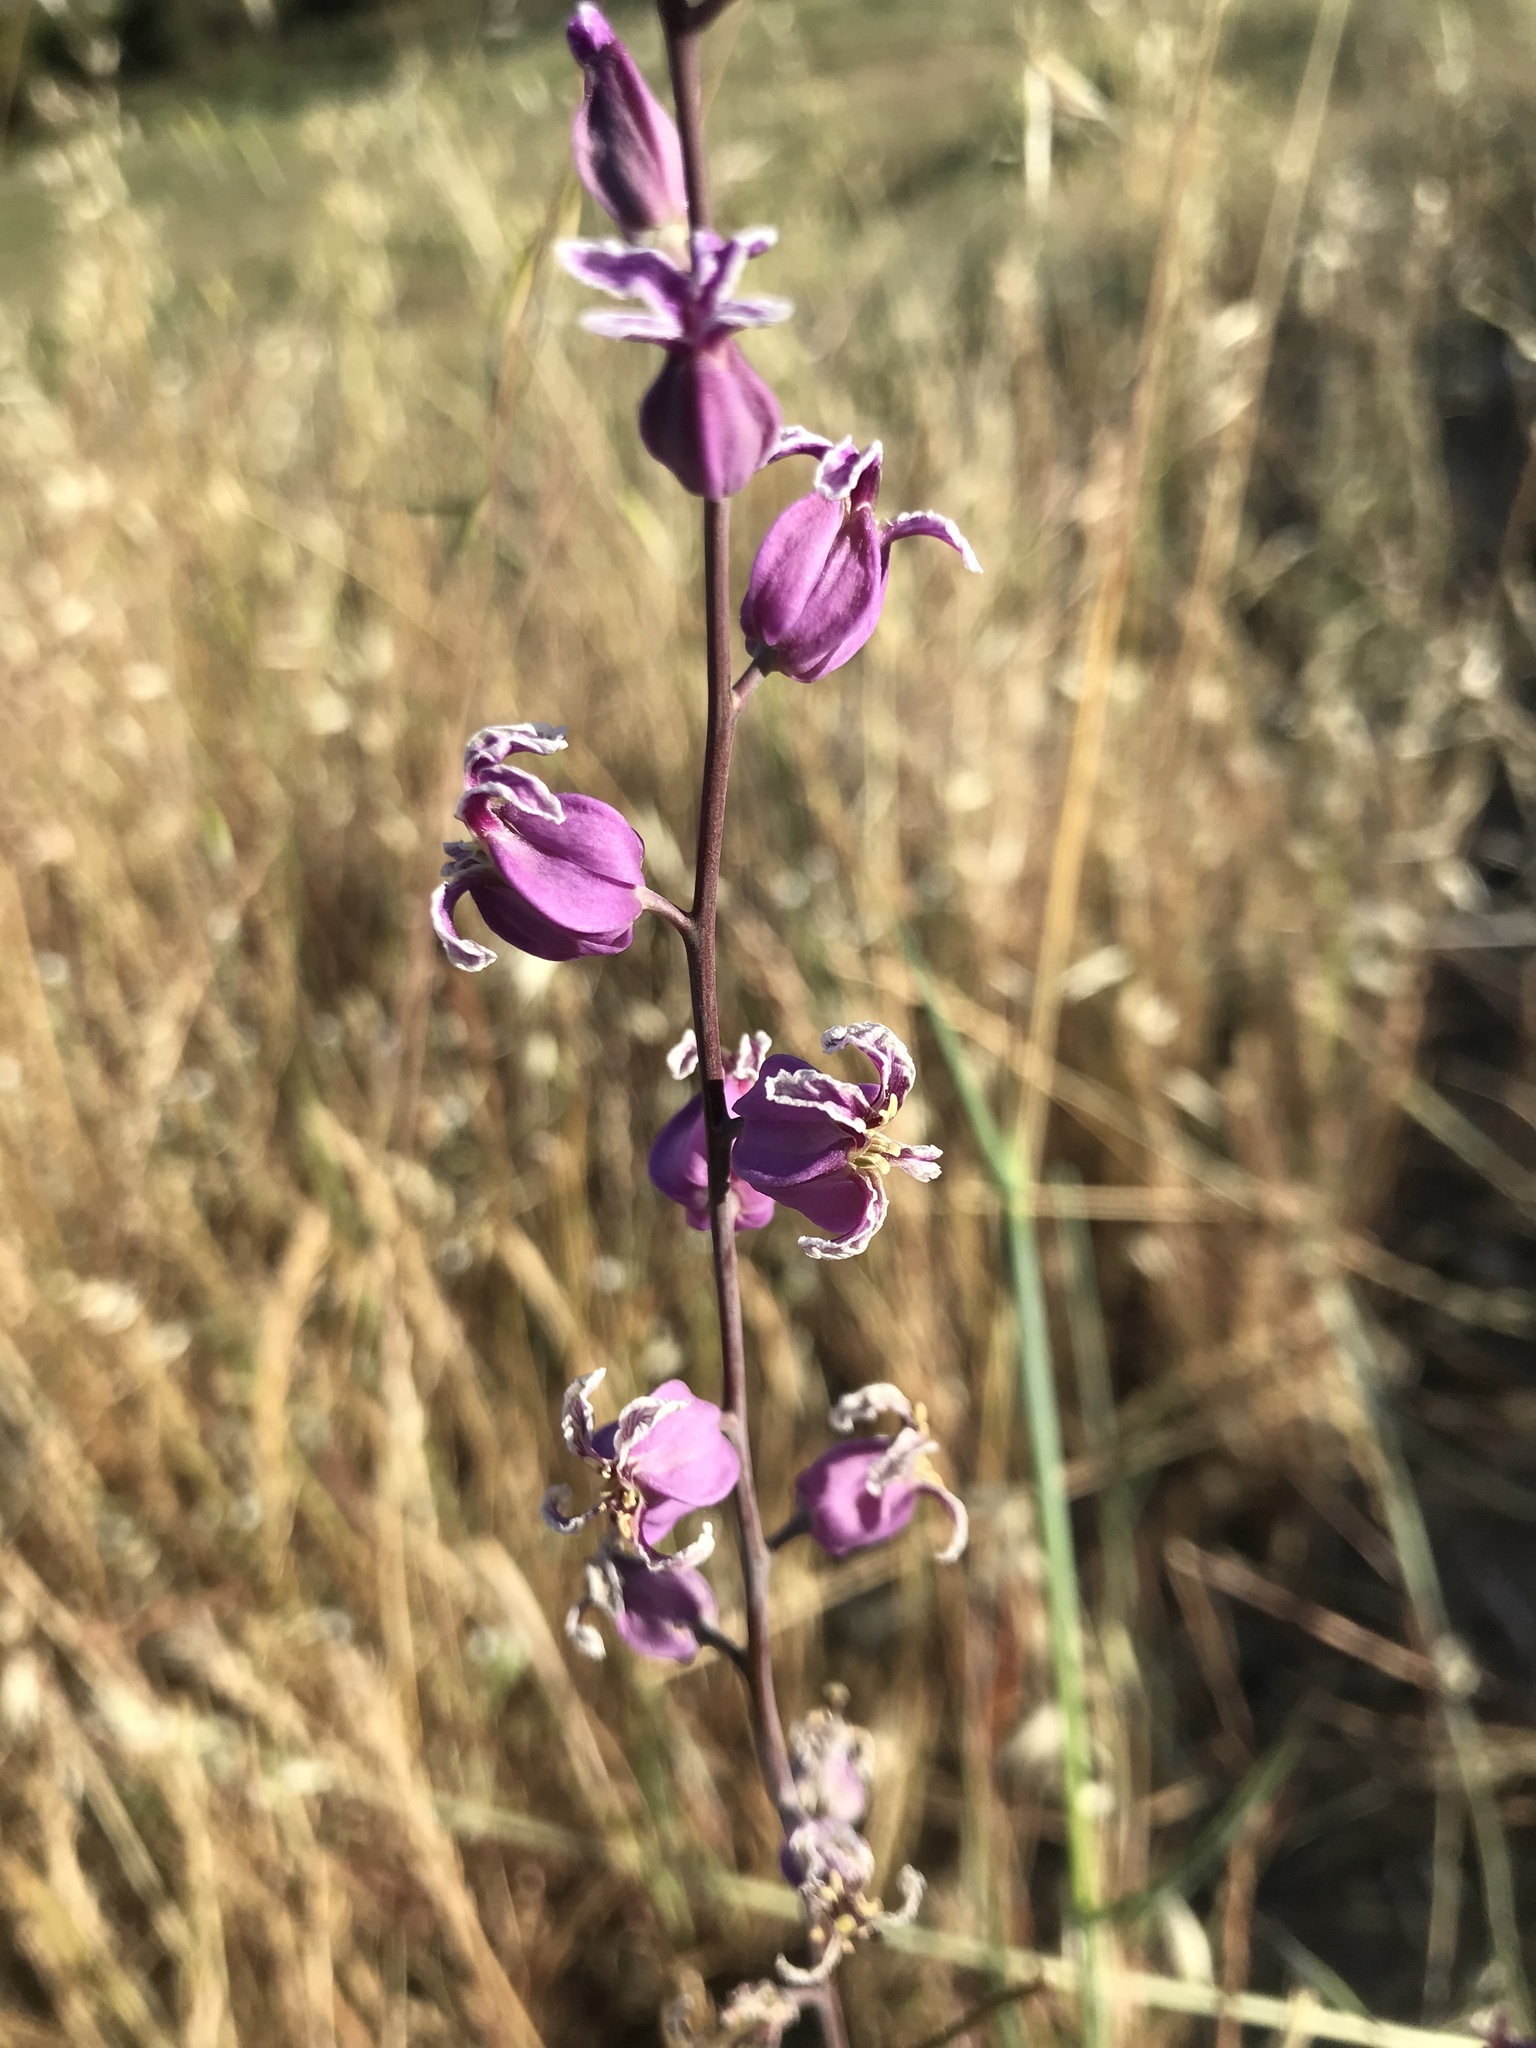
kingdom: Plantae
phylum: Tracheophyta
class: Magnoliopsida
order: Brassicales
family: Brassicaceae
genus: Streptanthus
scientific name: Streptanthus glandulosus
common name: Jewel-flower
